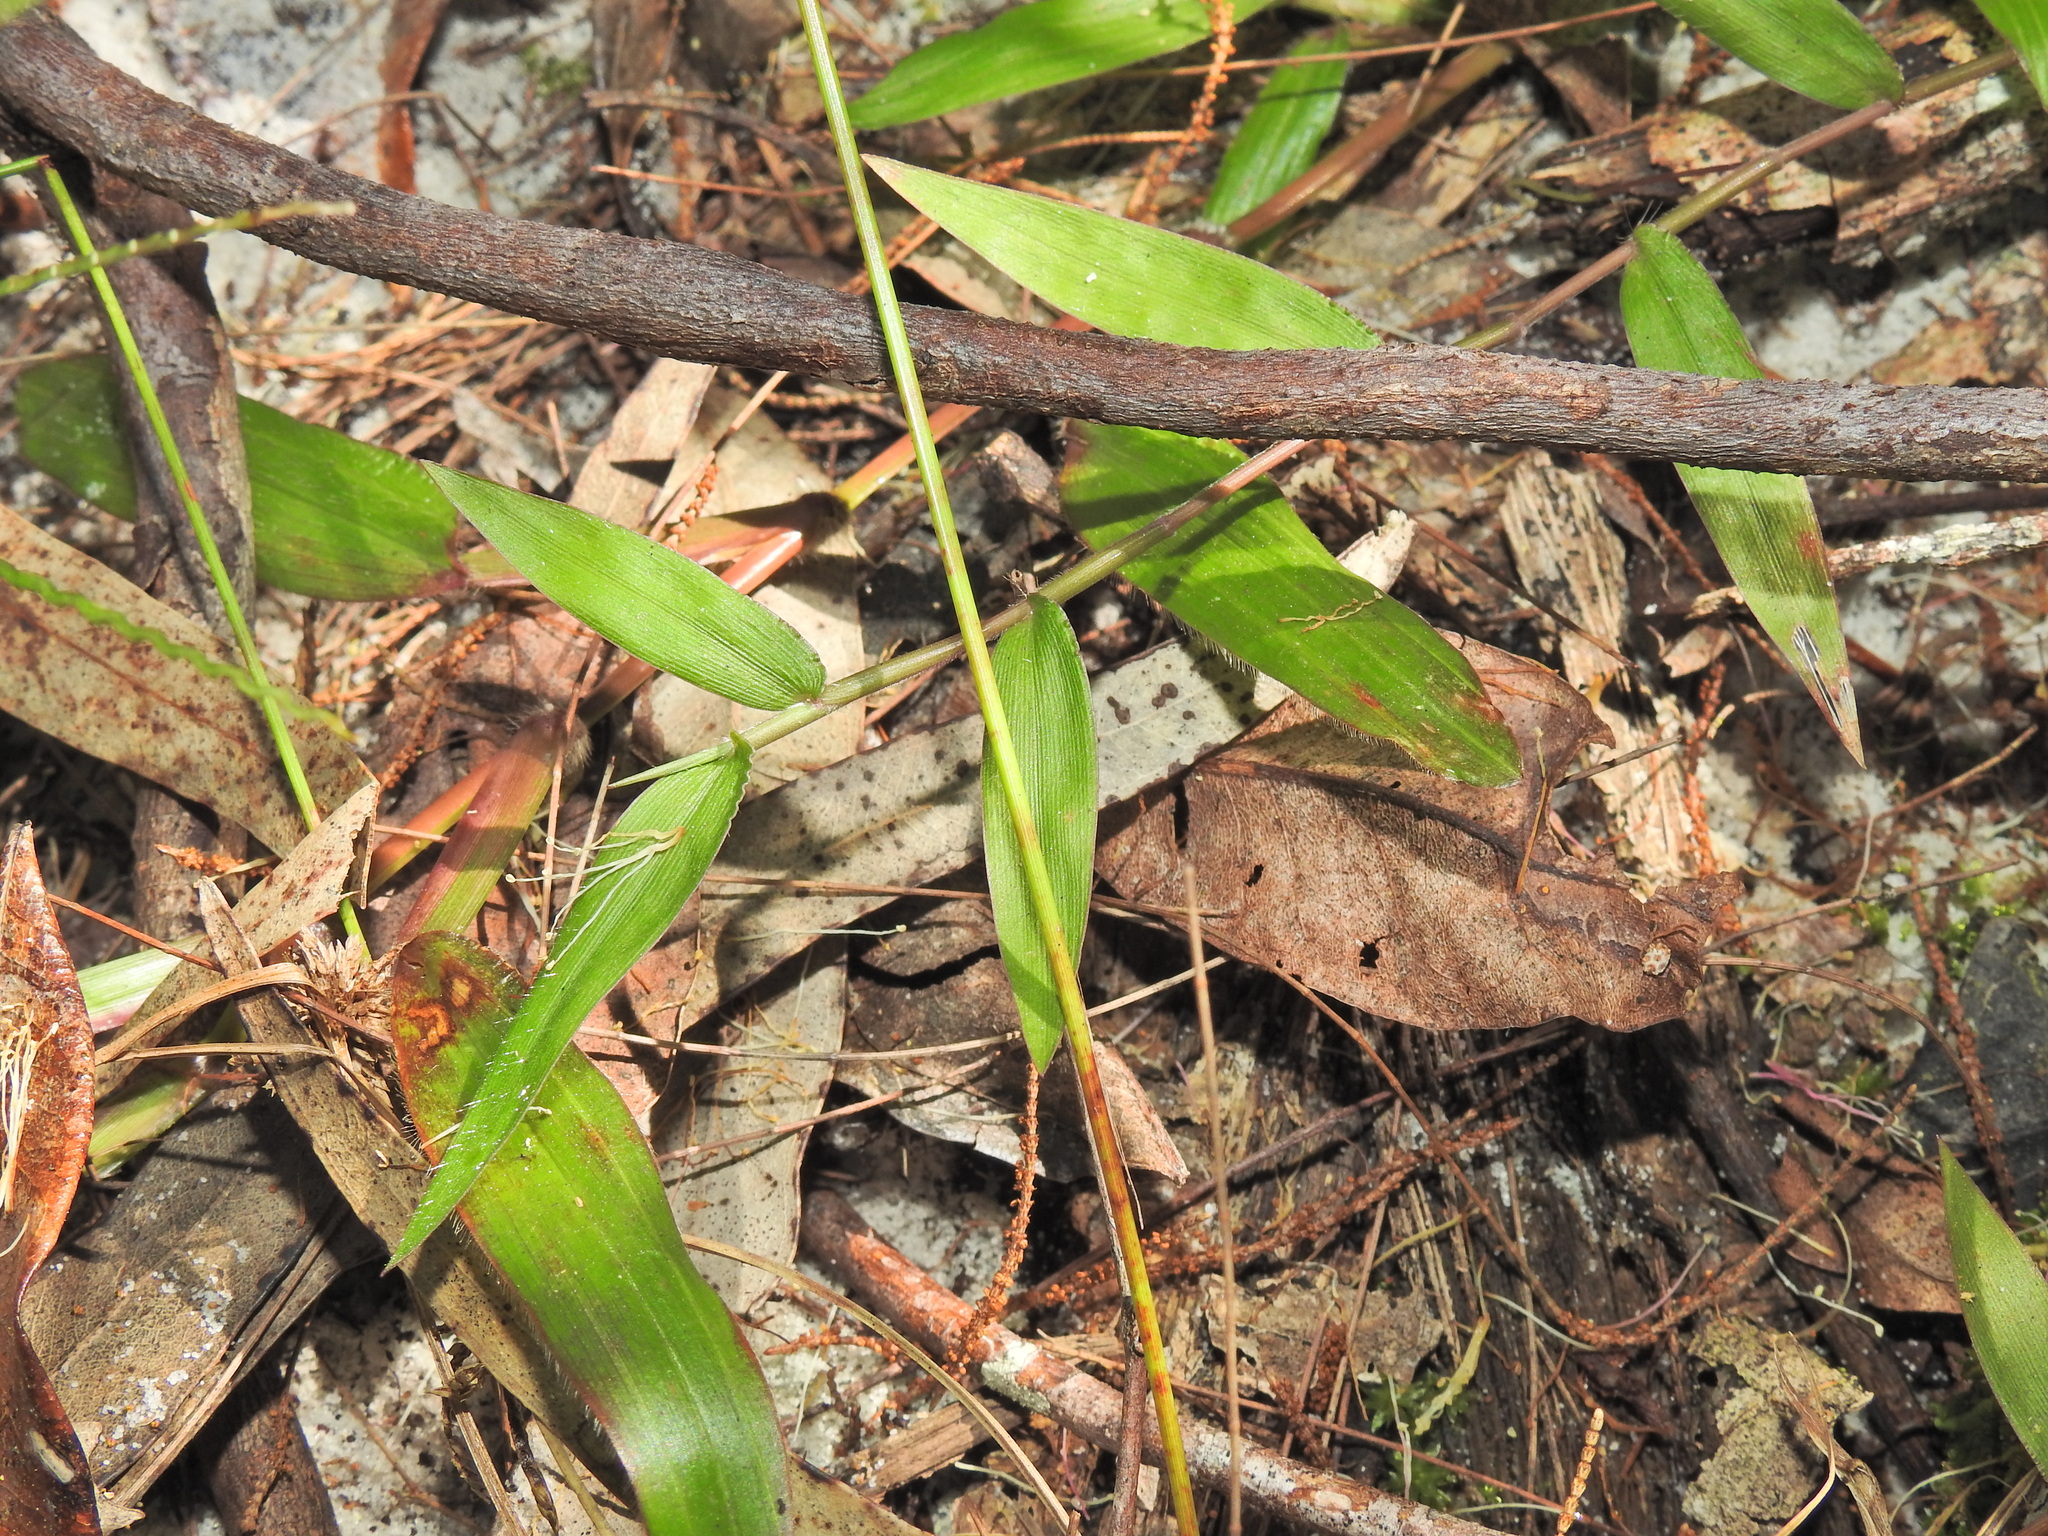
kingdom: Plantae
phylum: Tracheophyta
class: Liliopsida
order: Poales
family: Poaceae
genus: Oplismenus
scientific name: Oplismenus hirtellus
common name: Basketgrass
